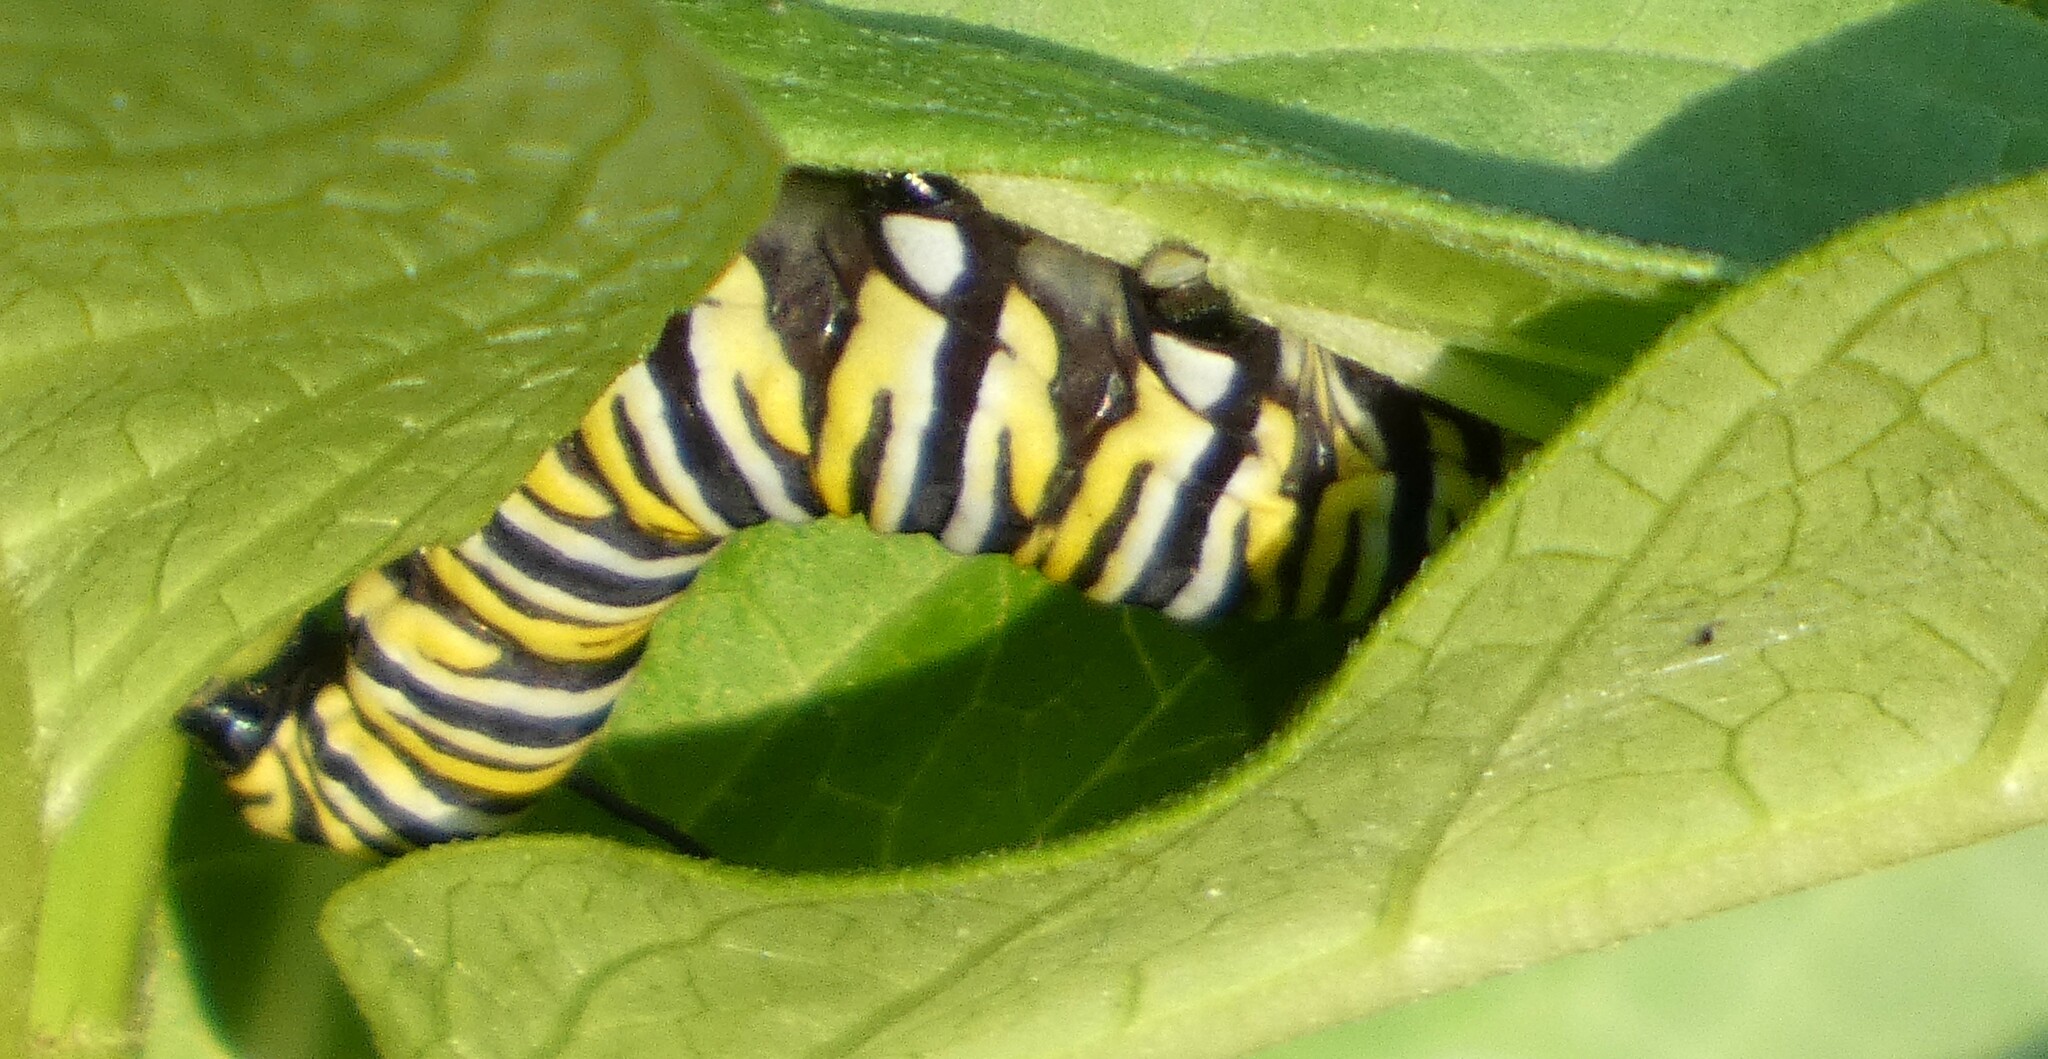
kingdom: Animalia
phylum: Arthropoda
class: Insecta
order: Lepidoptera
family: Nymphalidae
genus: Danaus
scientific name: Danaus plexippus
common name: Monarch
